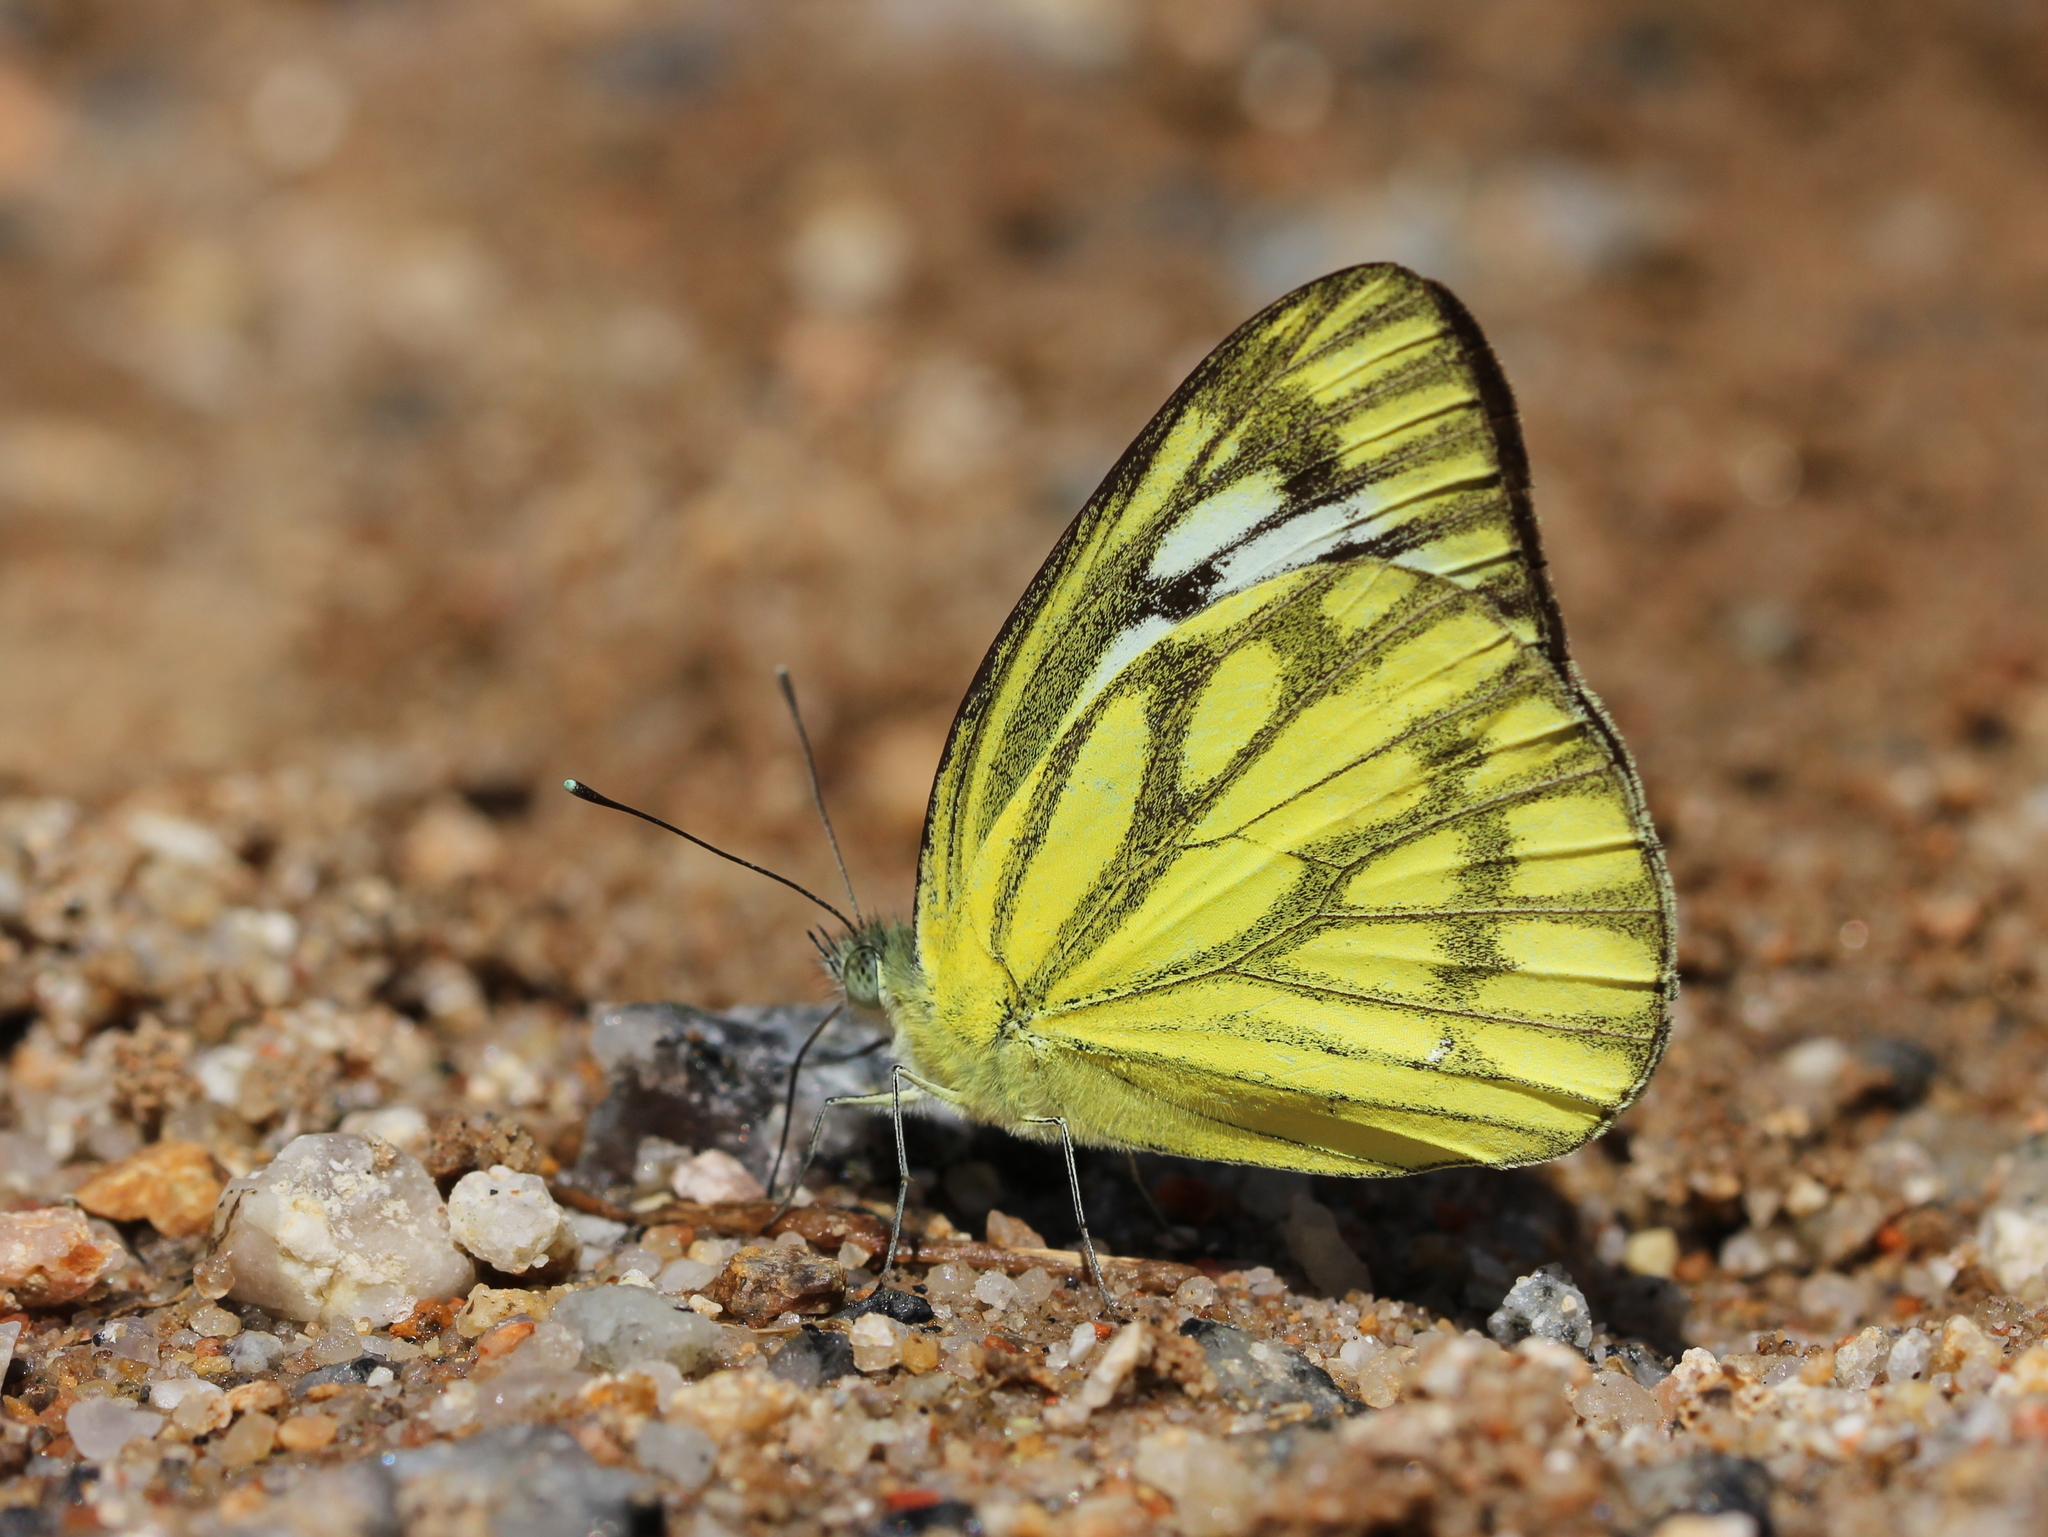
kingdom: Animalia
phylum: Arthropoda
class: Insecta
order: Lepidoptera
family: Pieridae
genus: Cepora
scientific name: Cepora nerissa
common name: Common gull
